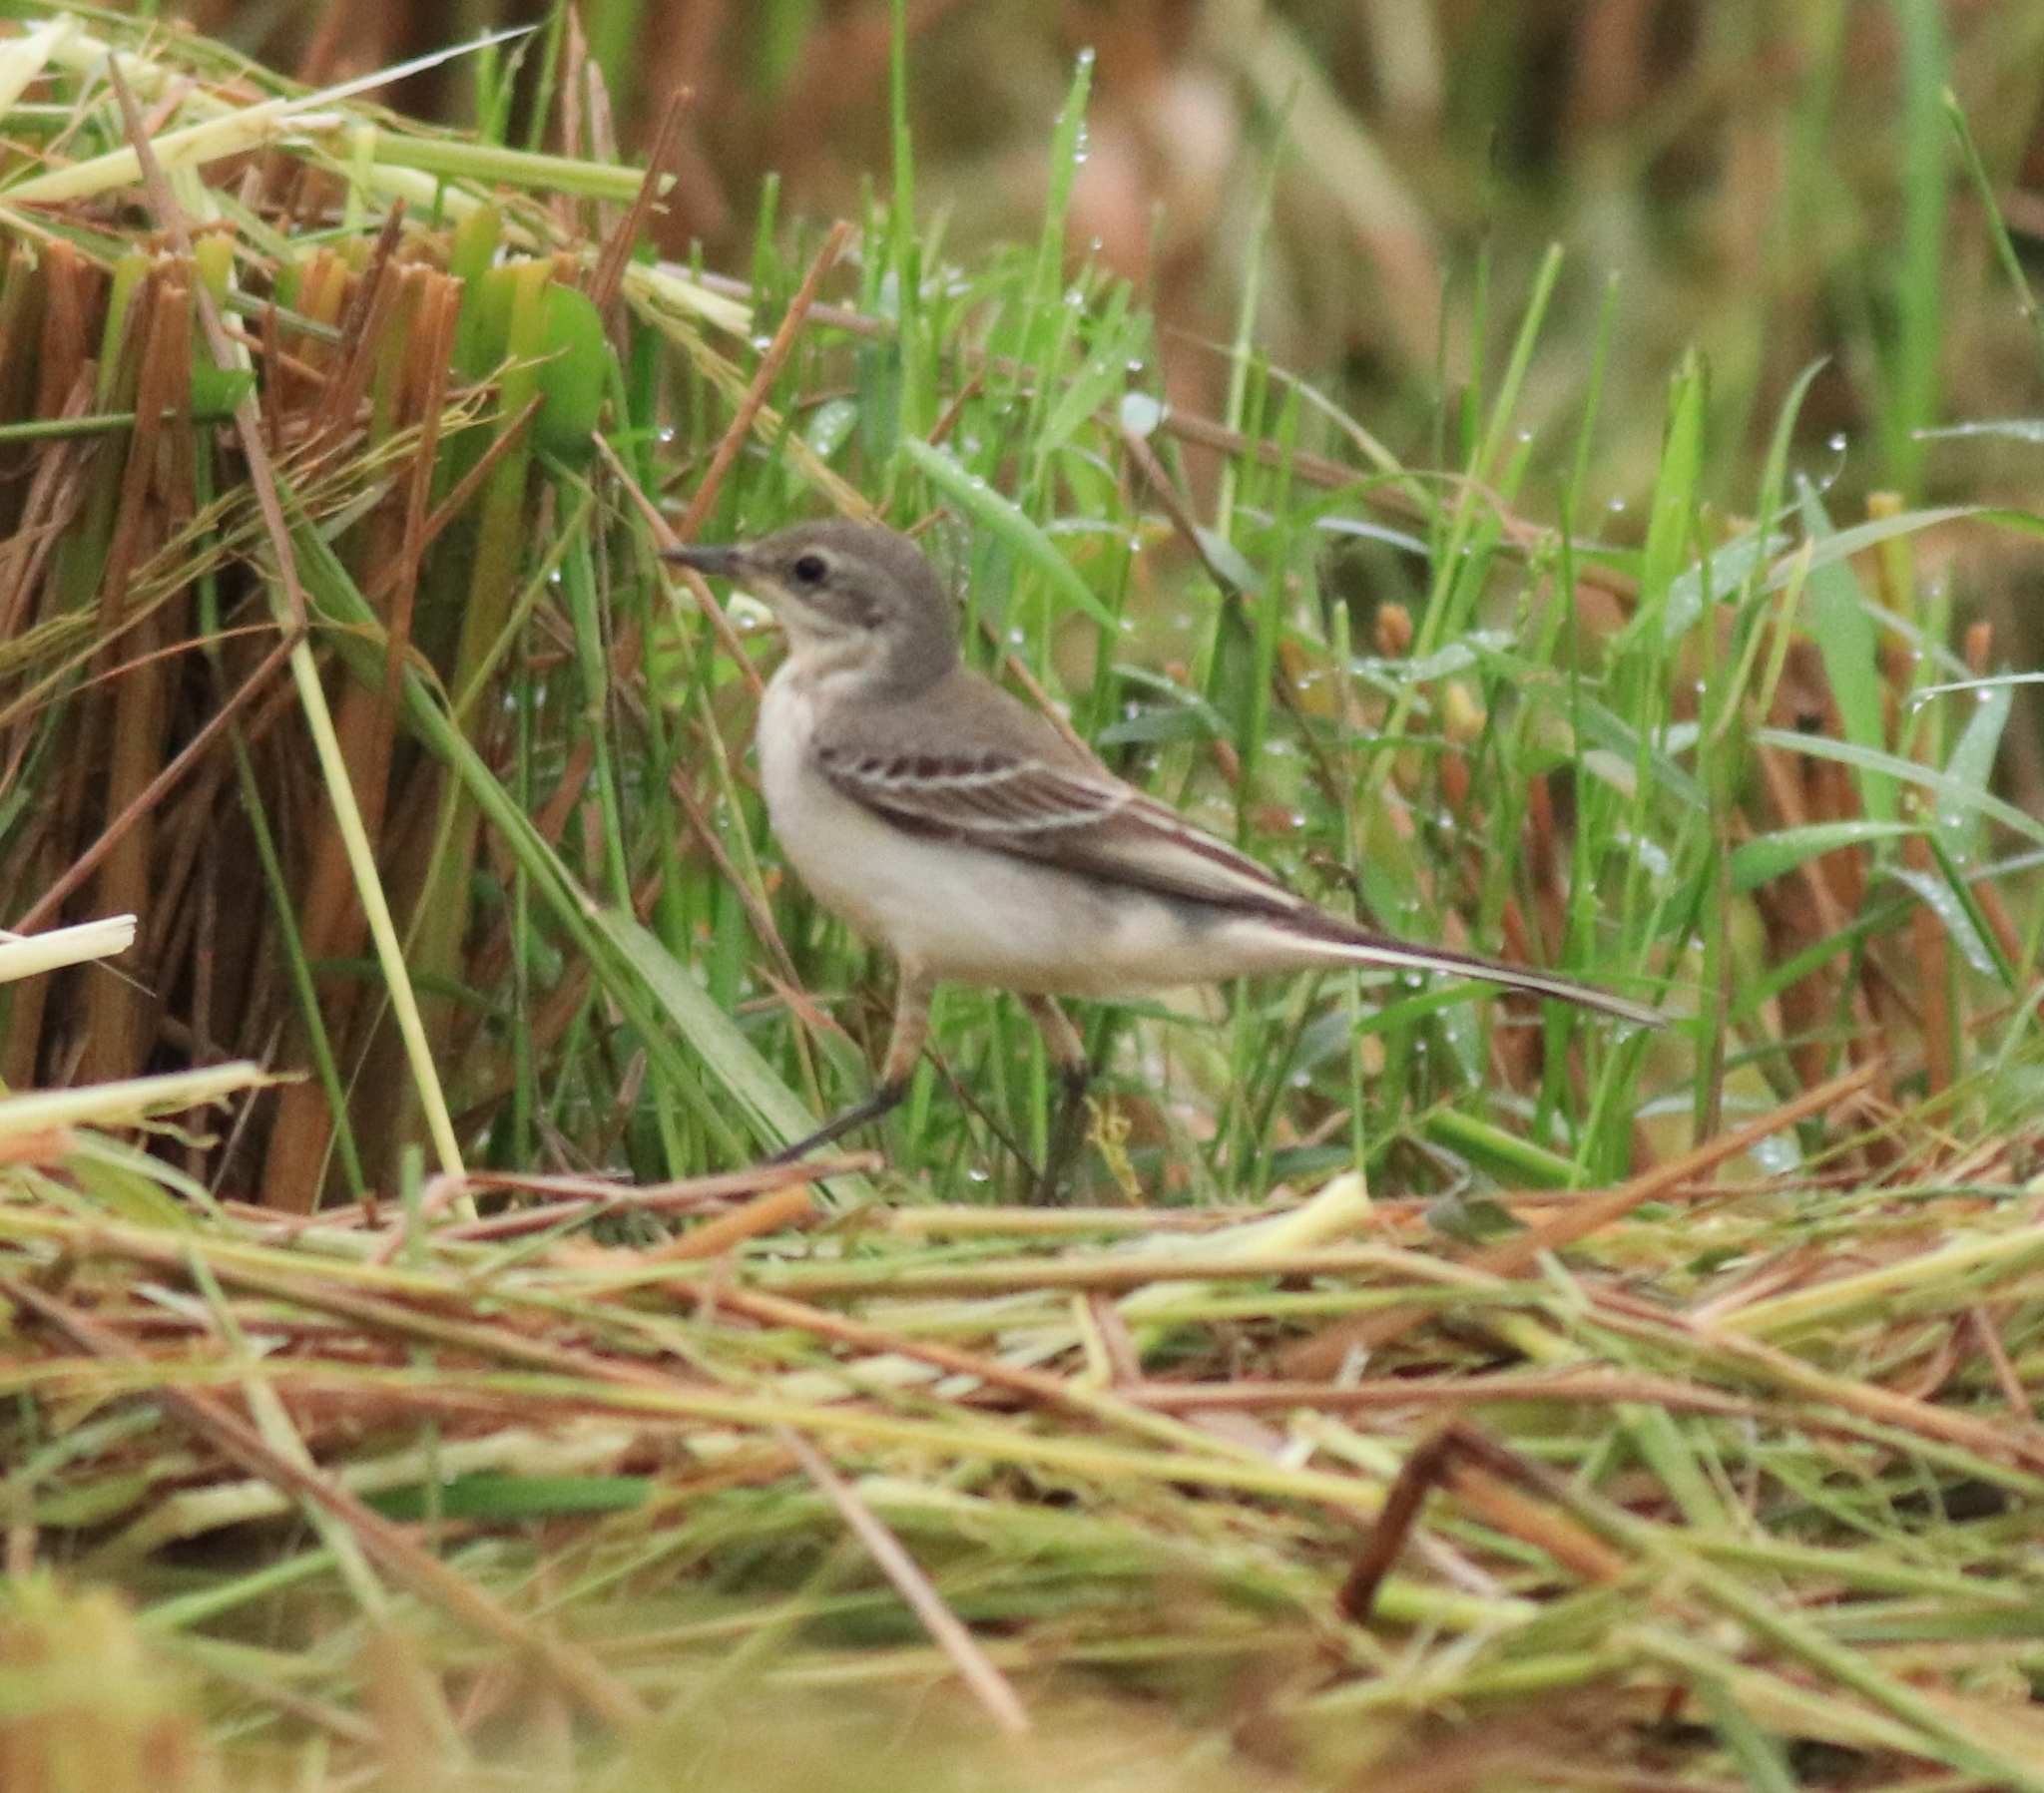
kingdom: Animalia
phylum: Chordata
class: Aves
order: Passeriformes
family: Motacillidae
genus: Motacilla
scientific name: Motacilla flava
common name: Western yellow wagtail
